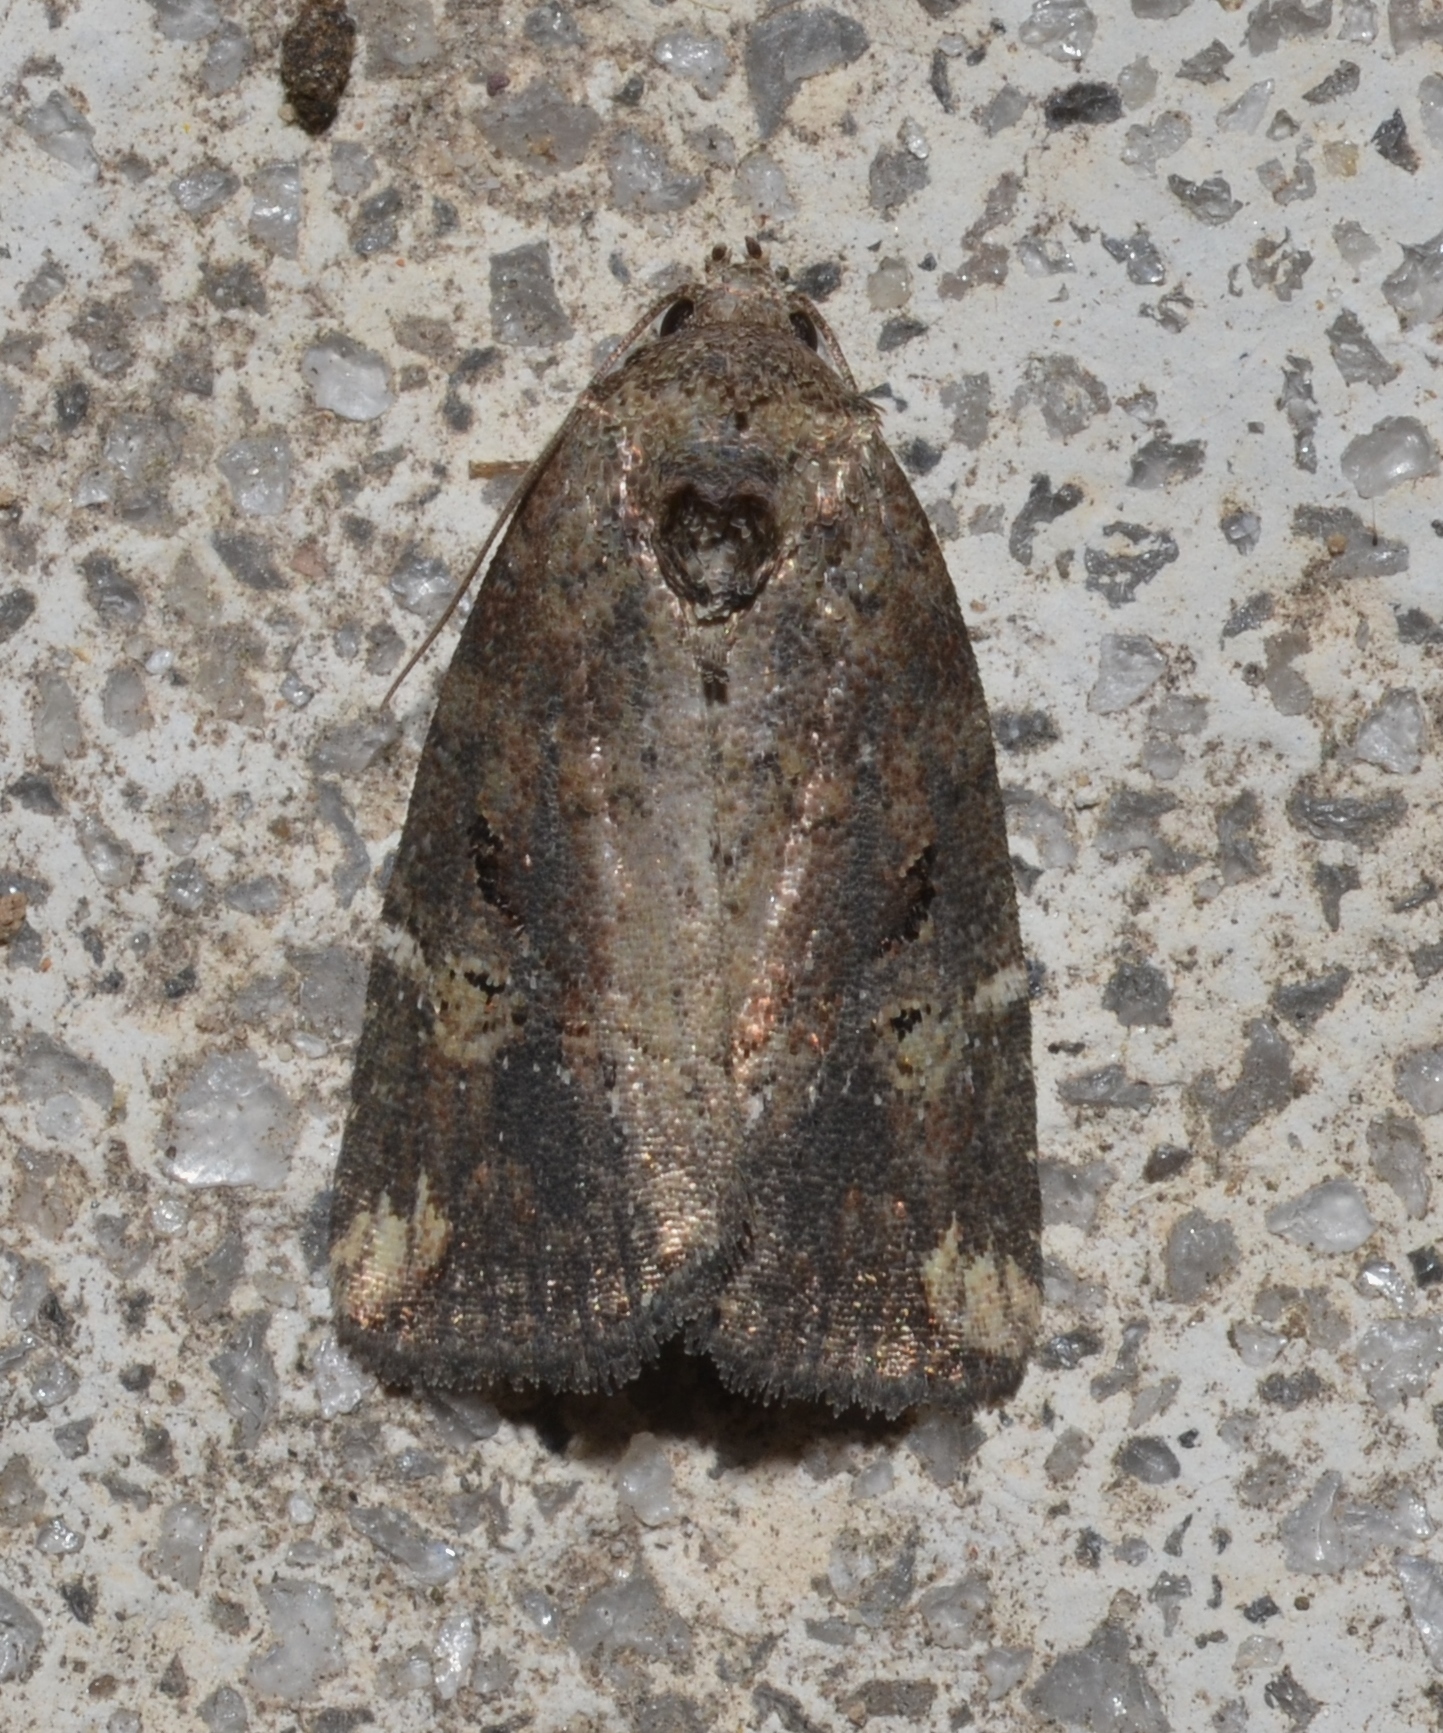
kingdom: Animalia
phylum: Arthropoda
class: Insecta
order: Lepidoptera
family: Noctuidae
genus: Elaphria
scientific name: Elaphria versicolor
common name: Fir harlequin
